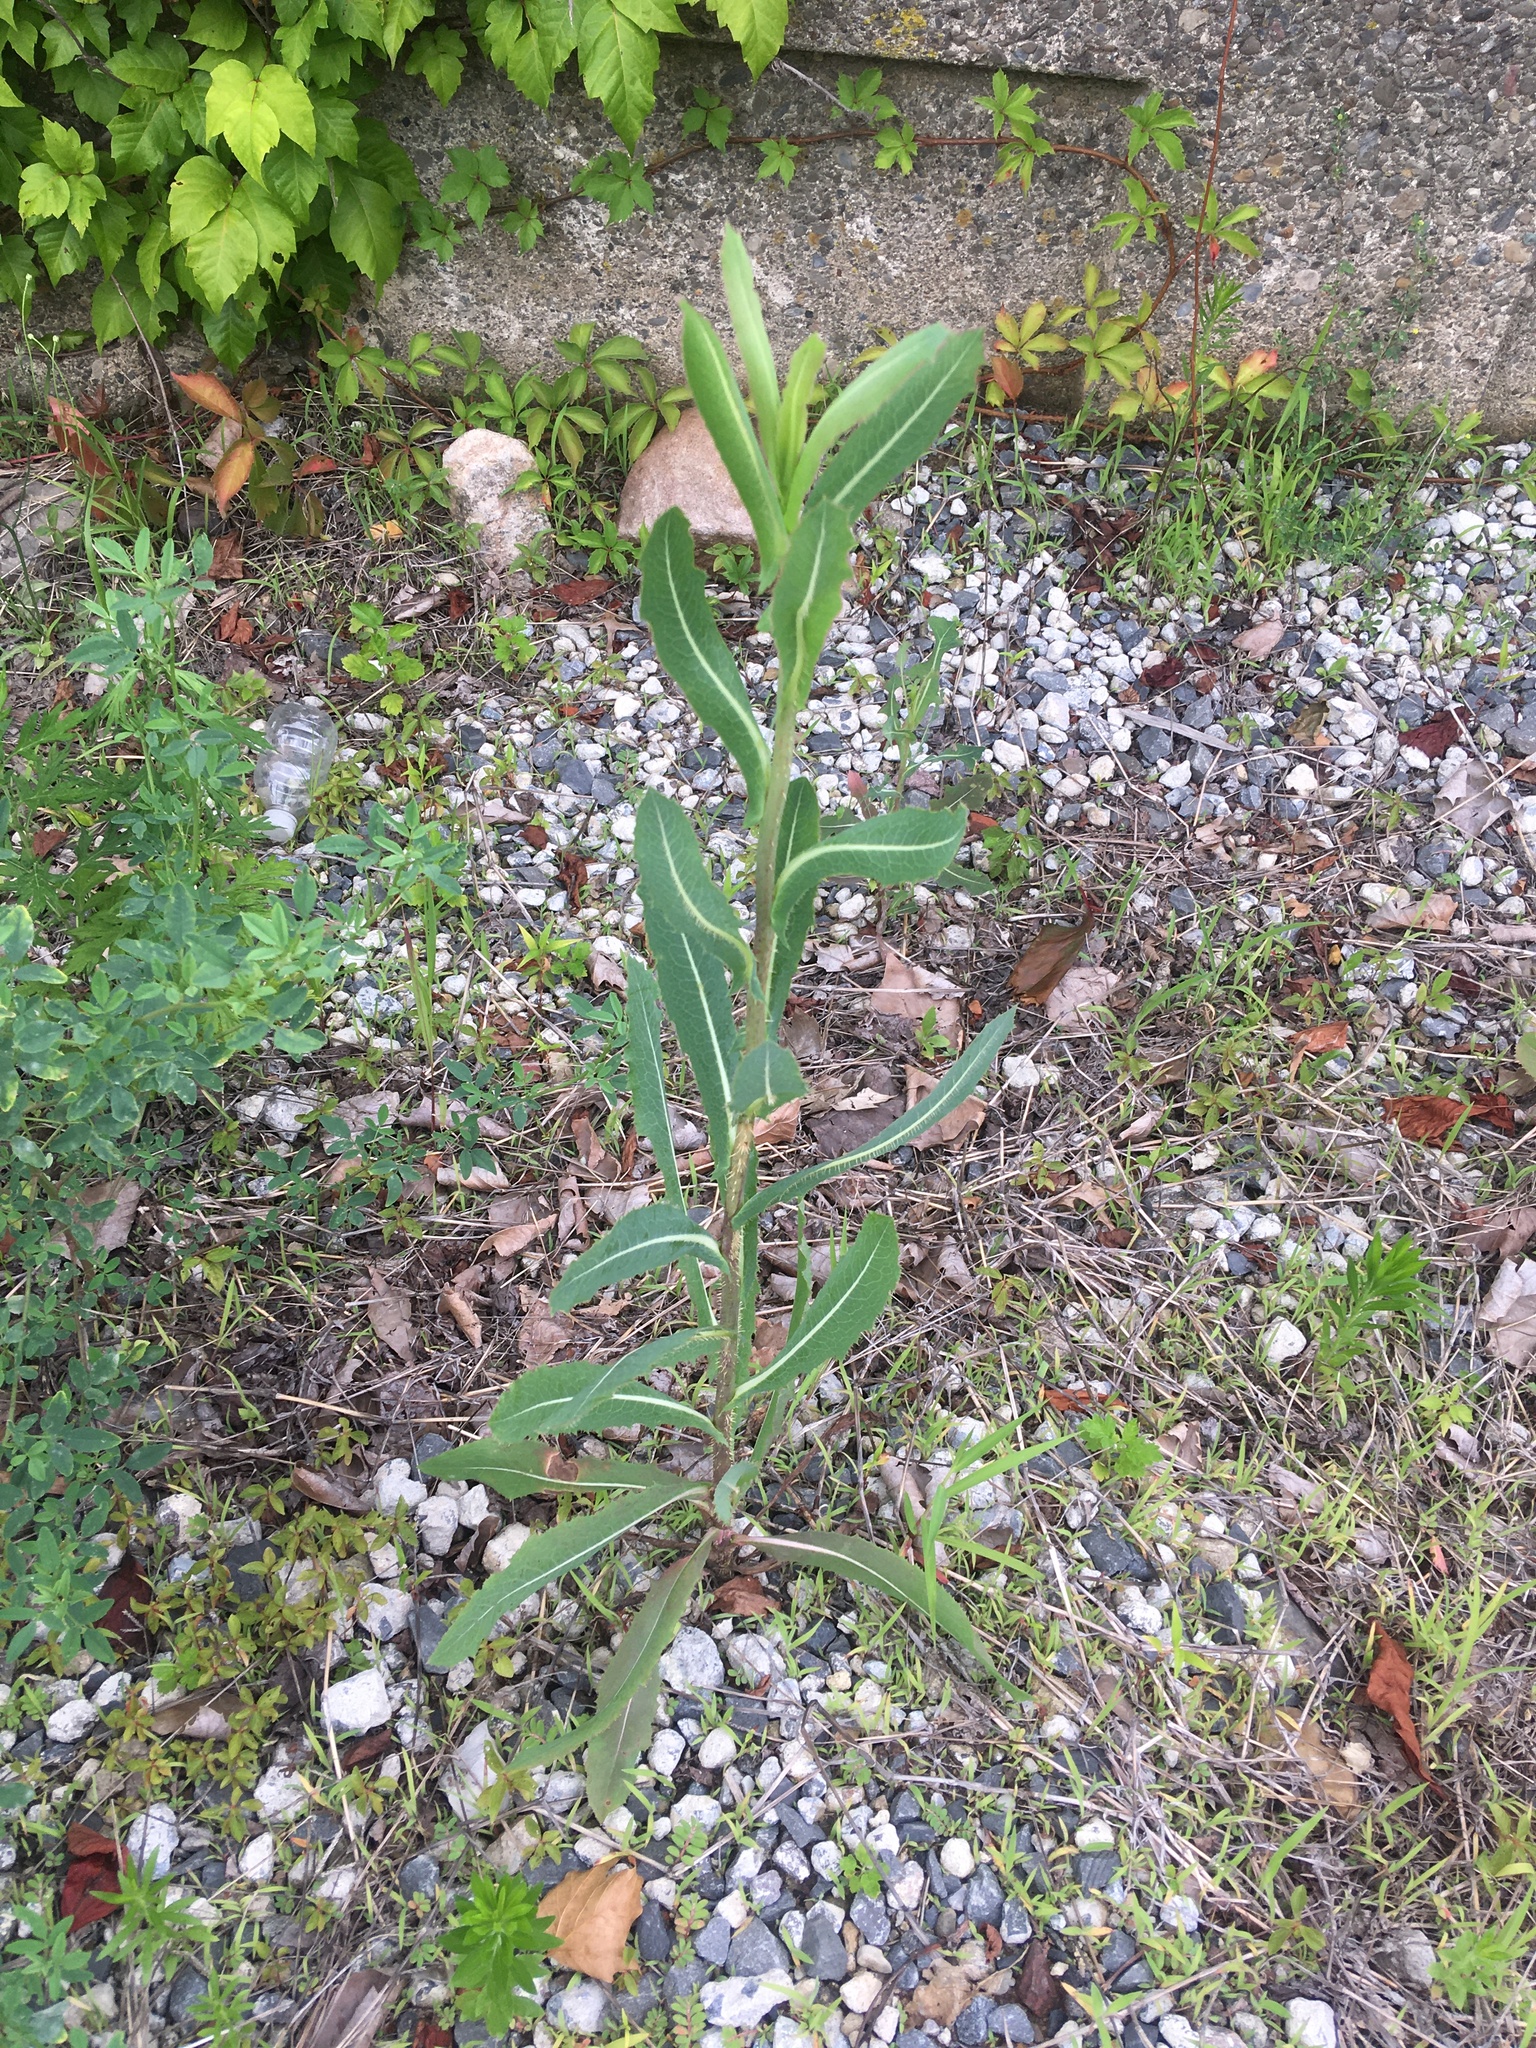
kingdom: Plantae
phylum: Tracheophyta
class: Magnoliopsida
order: Asterales
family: Asteraceae
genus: Lactuca
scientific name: Lactuca serriola
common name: Prickly lettuce
